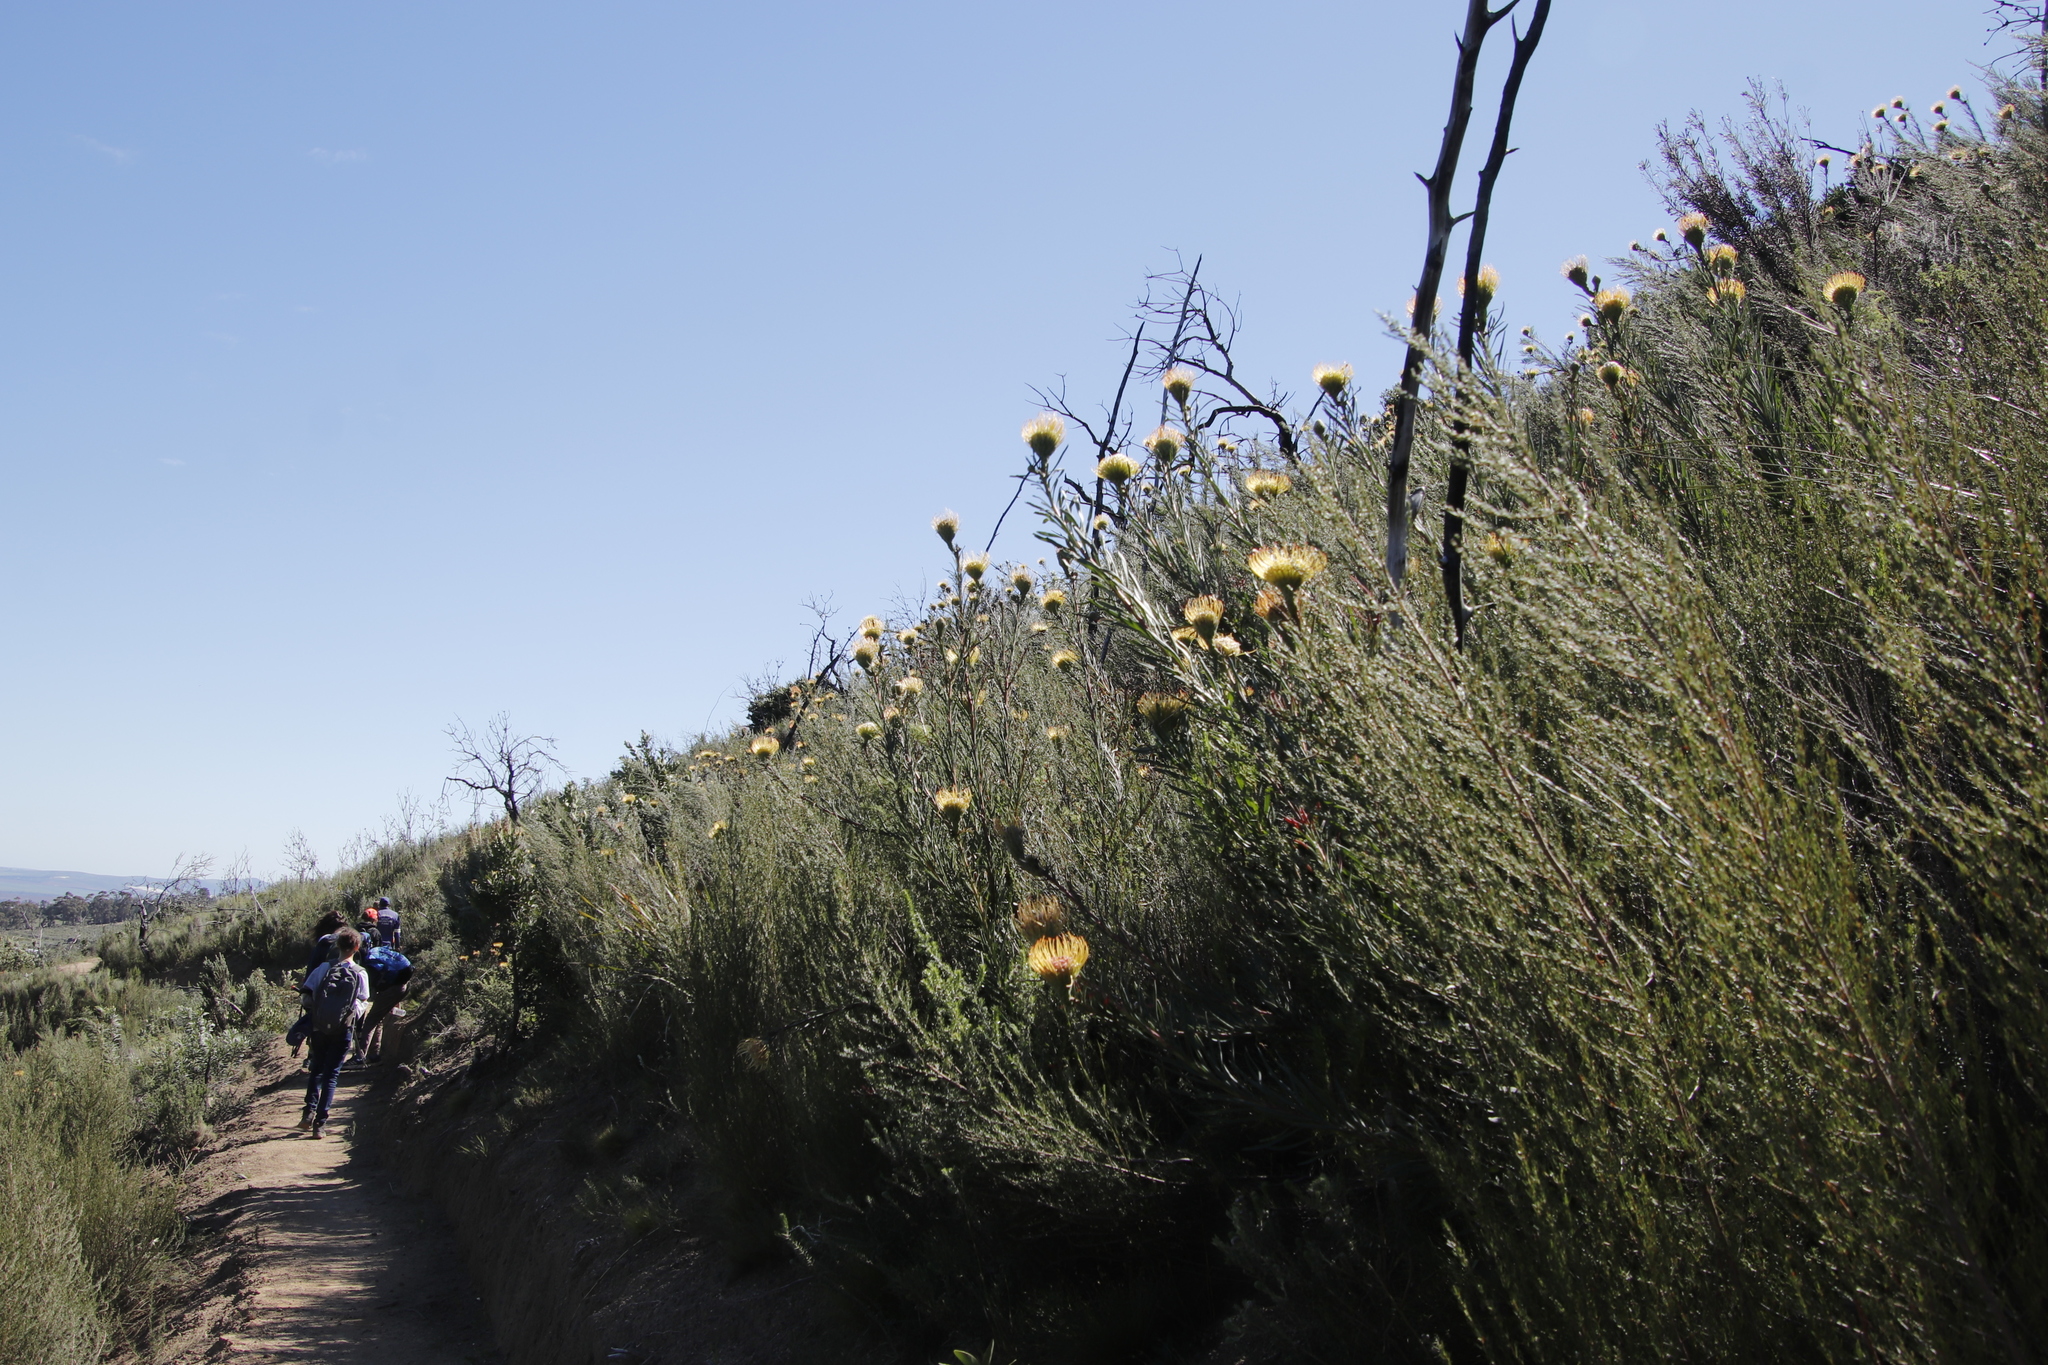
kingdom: Plantae
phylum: Tracheophyta
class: Magnoliopsida
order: Proteales
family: Proteaceae
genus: Leucospermum
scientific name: Leucospermum lineare
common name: Needle-leaf pincushion
